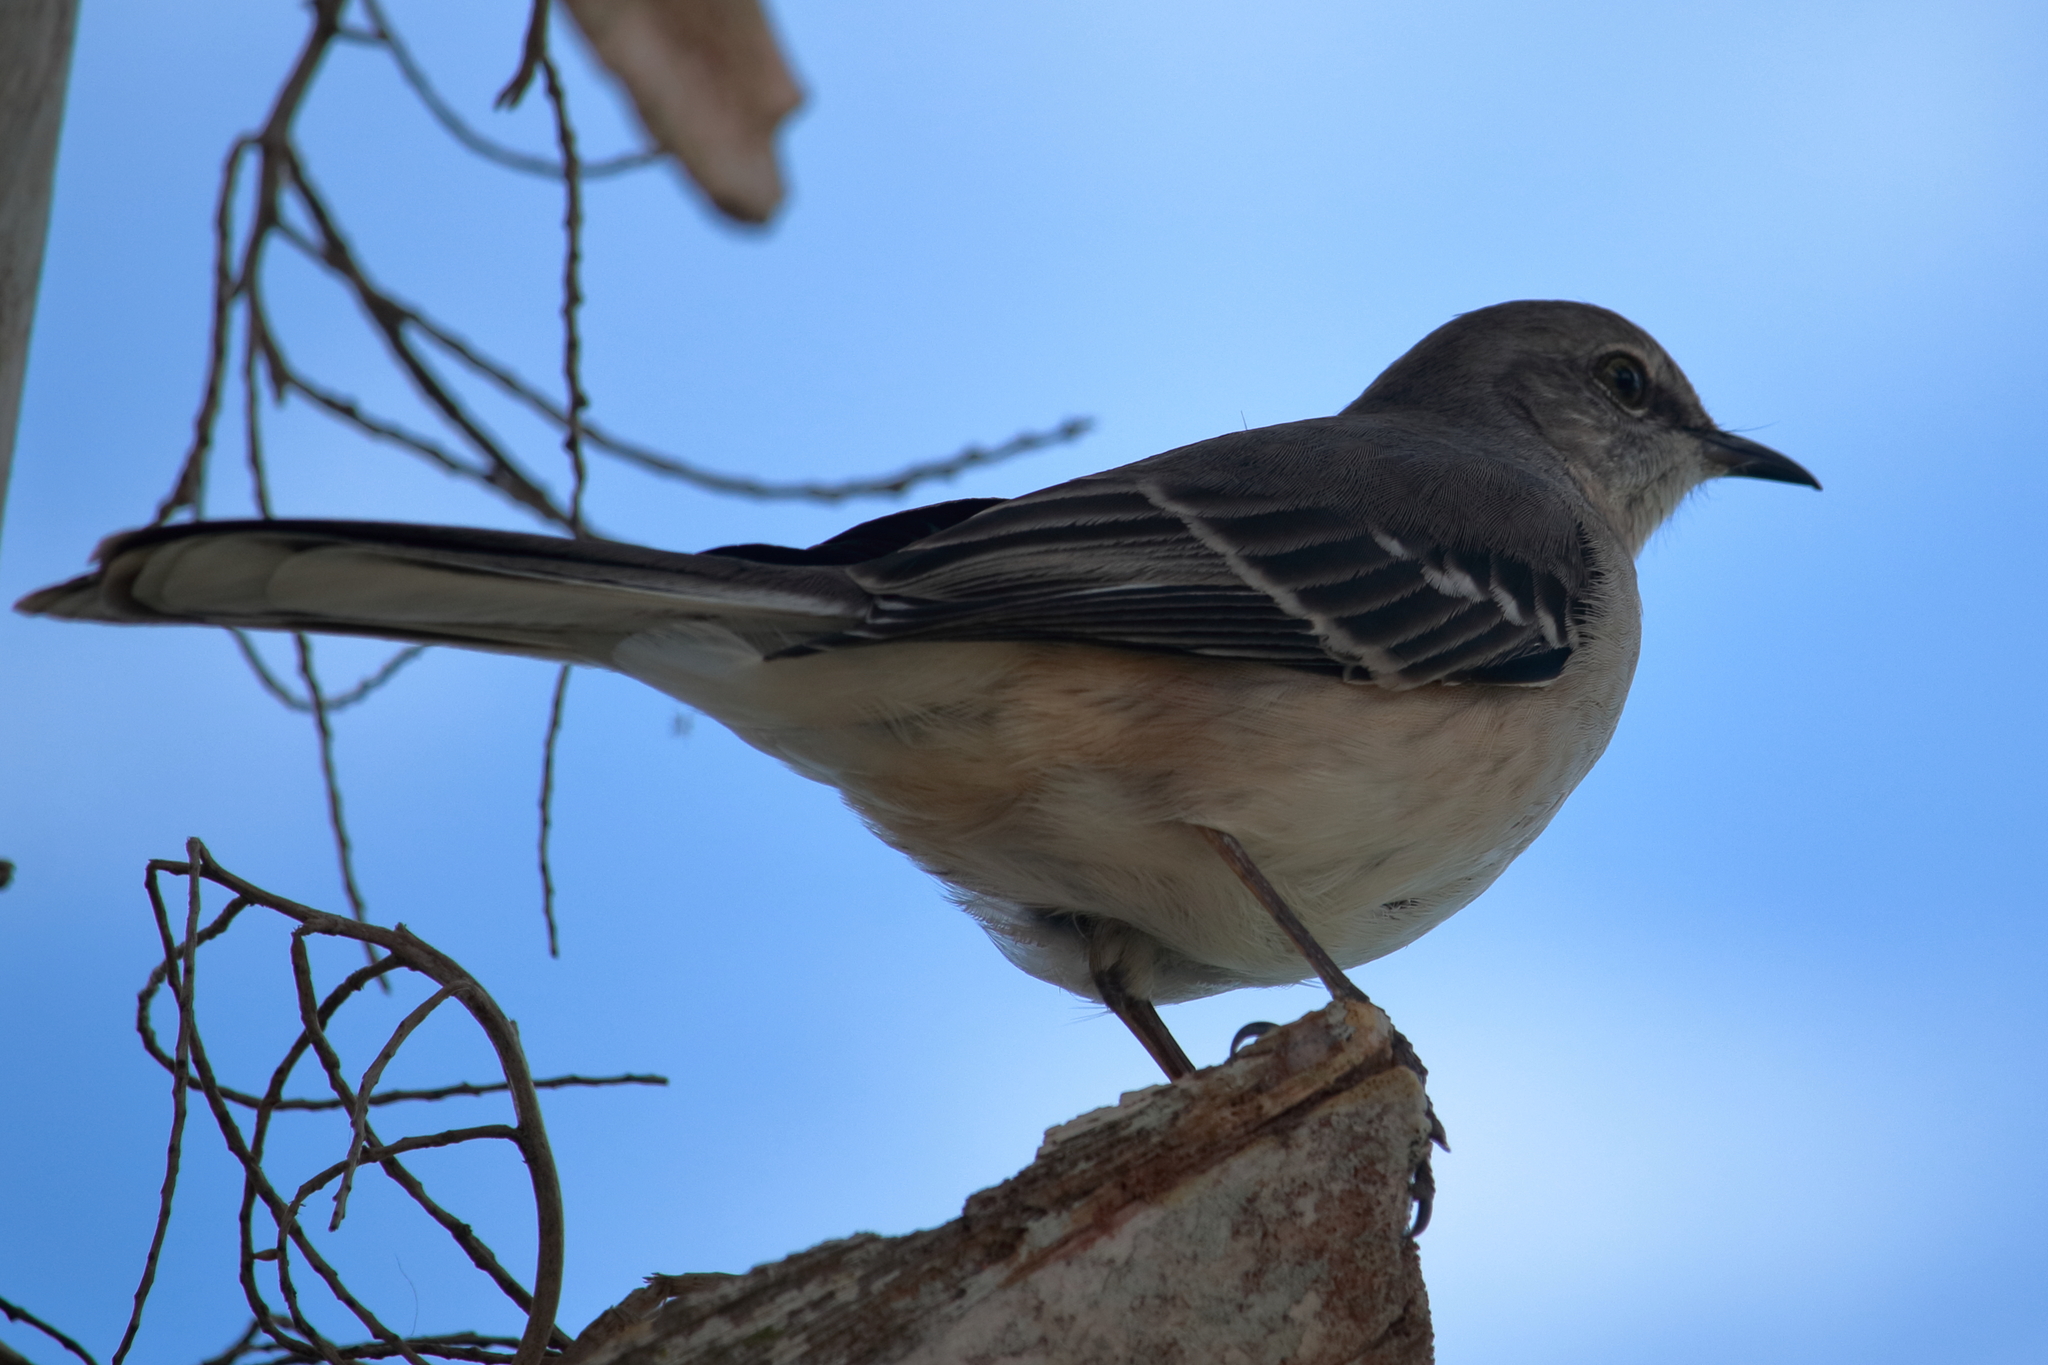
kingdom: Animalia
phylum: Chordata
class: Aves
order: Passeriformes
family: Mimidae
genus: Mimus
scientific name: Mimus polyglottos
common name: Northern mockingbird
